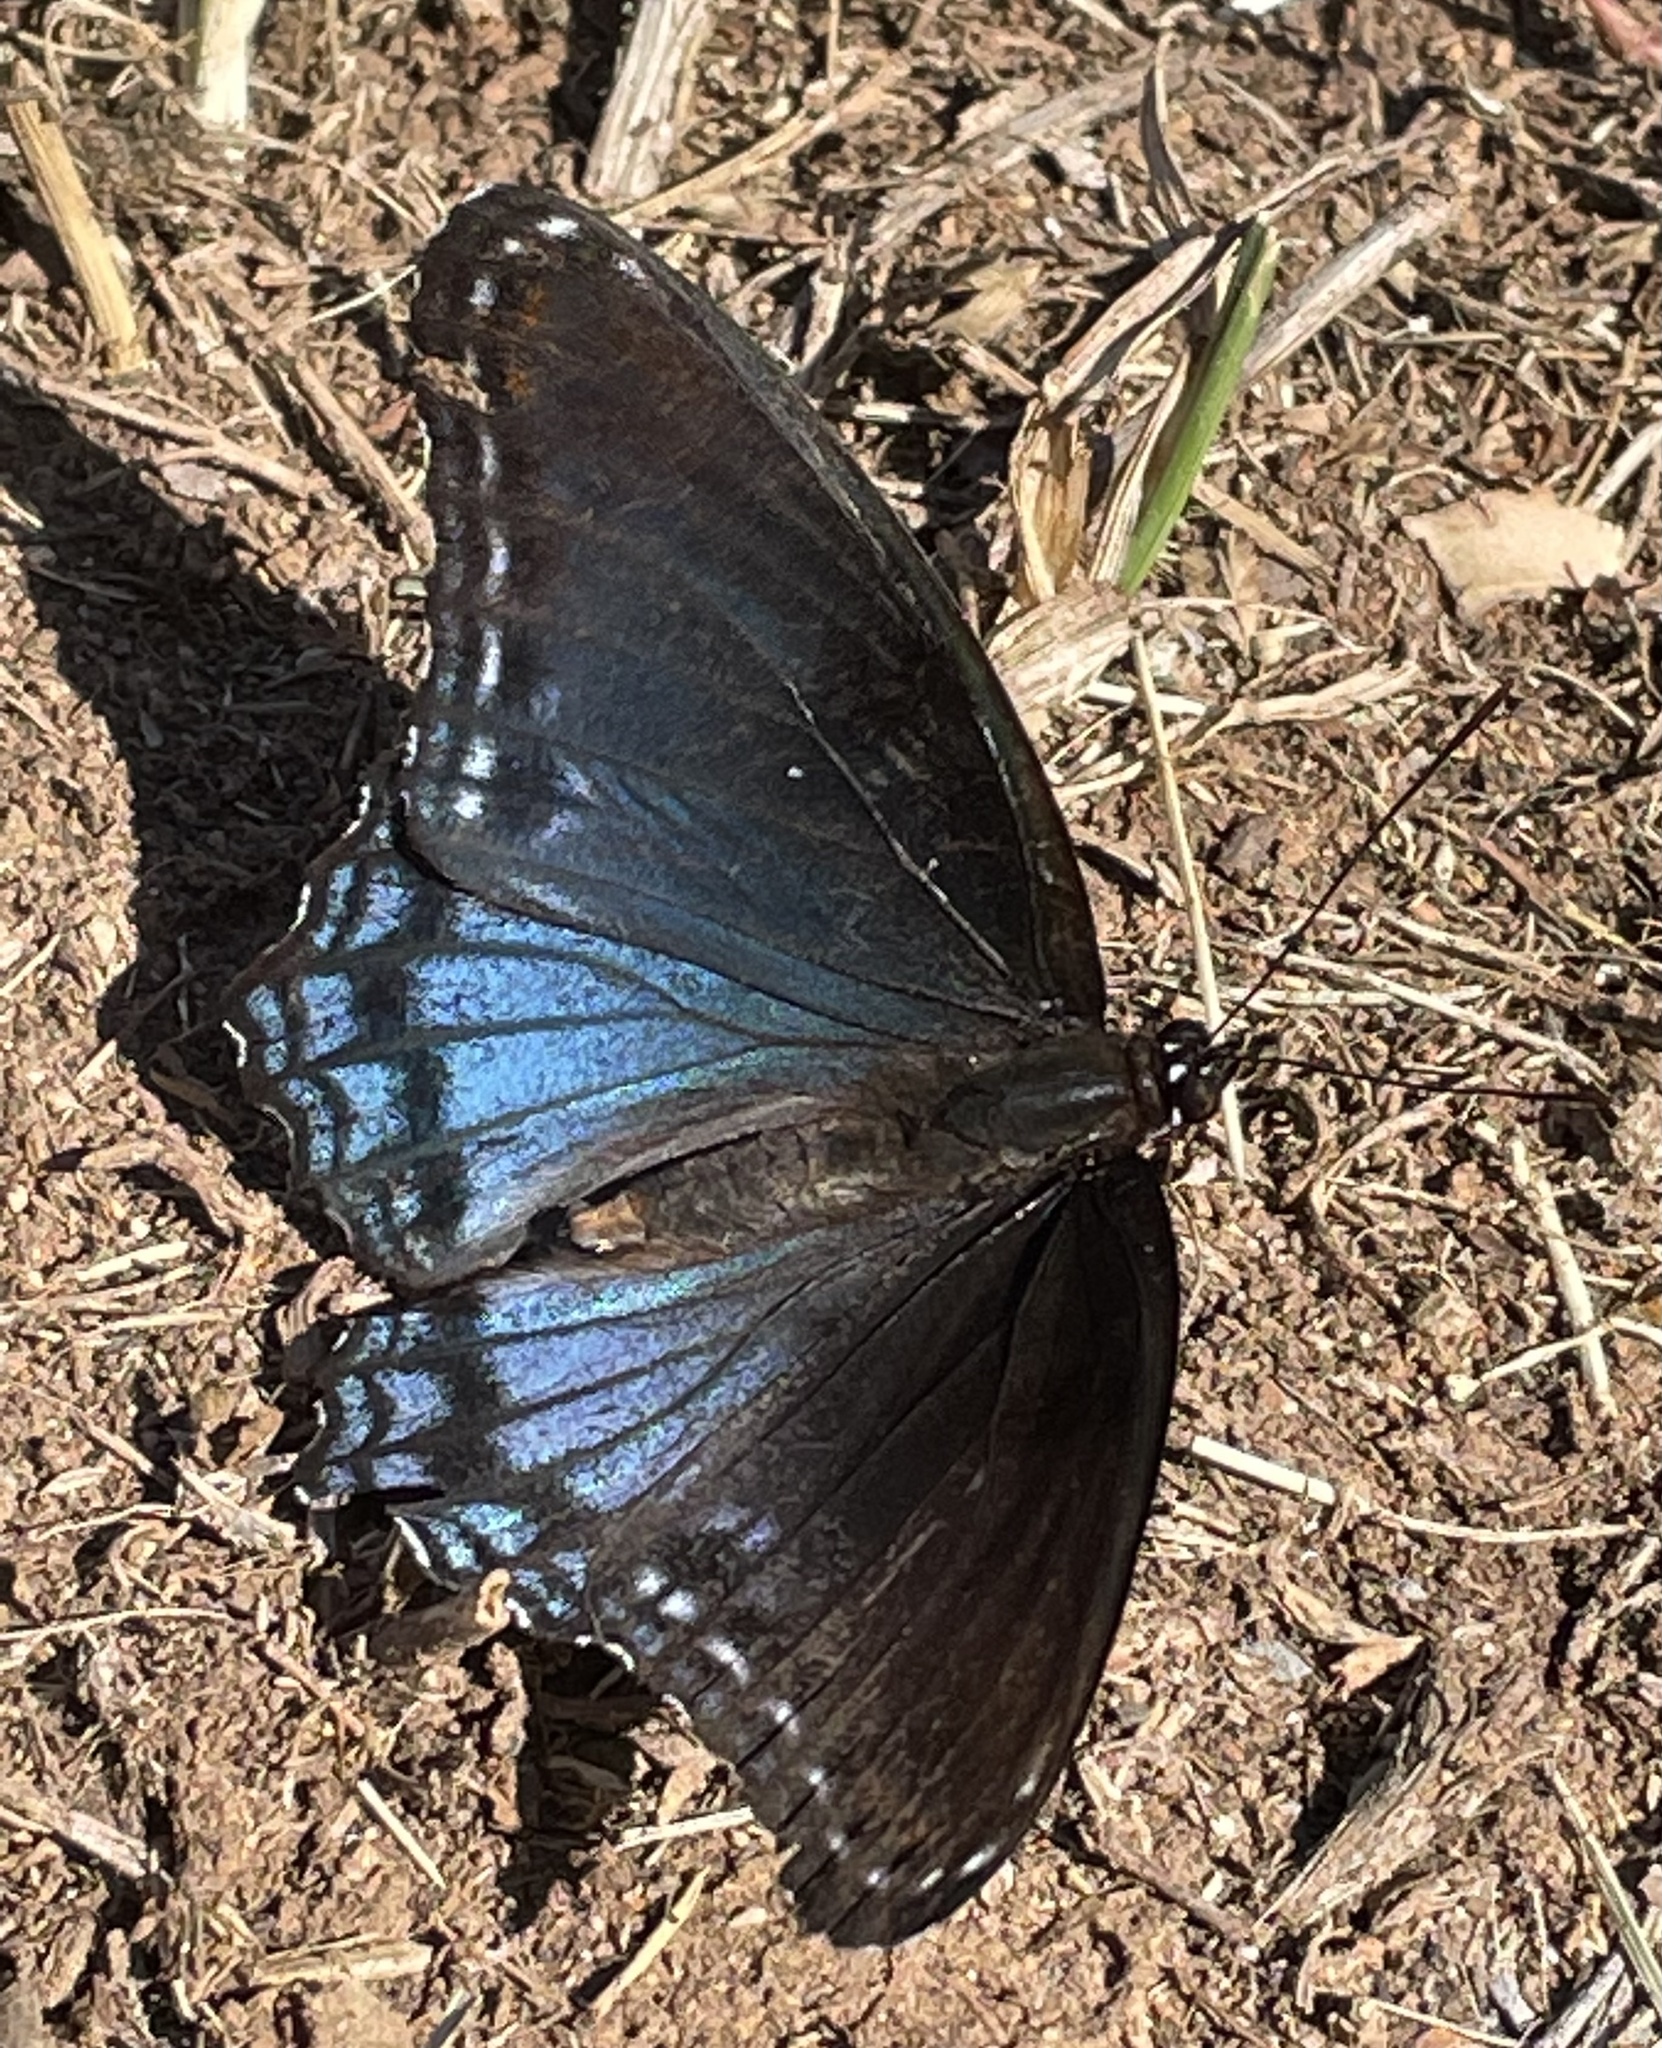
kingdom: Animalia
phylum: Arthropoda
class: Insecta
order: Lepidoptera
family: Nymphalidae
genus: Limenitis
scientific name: Limenitis astyanax
